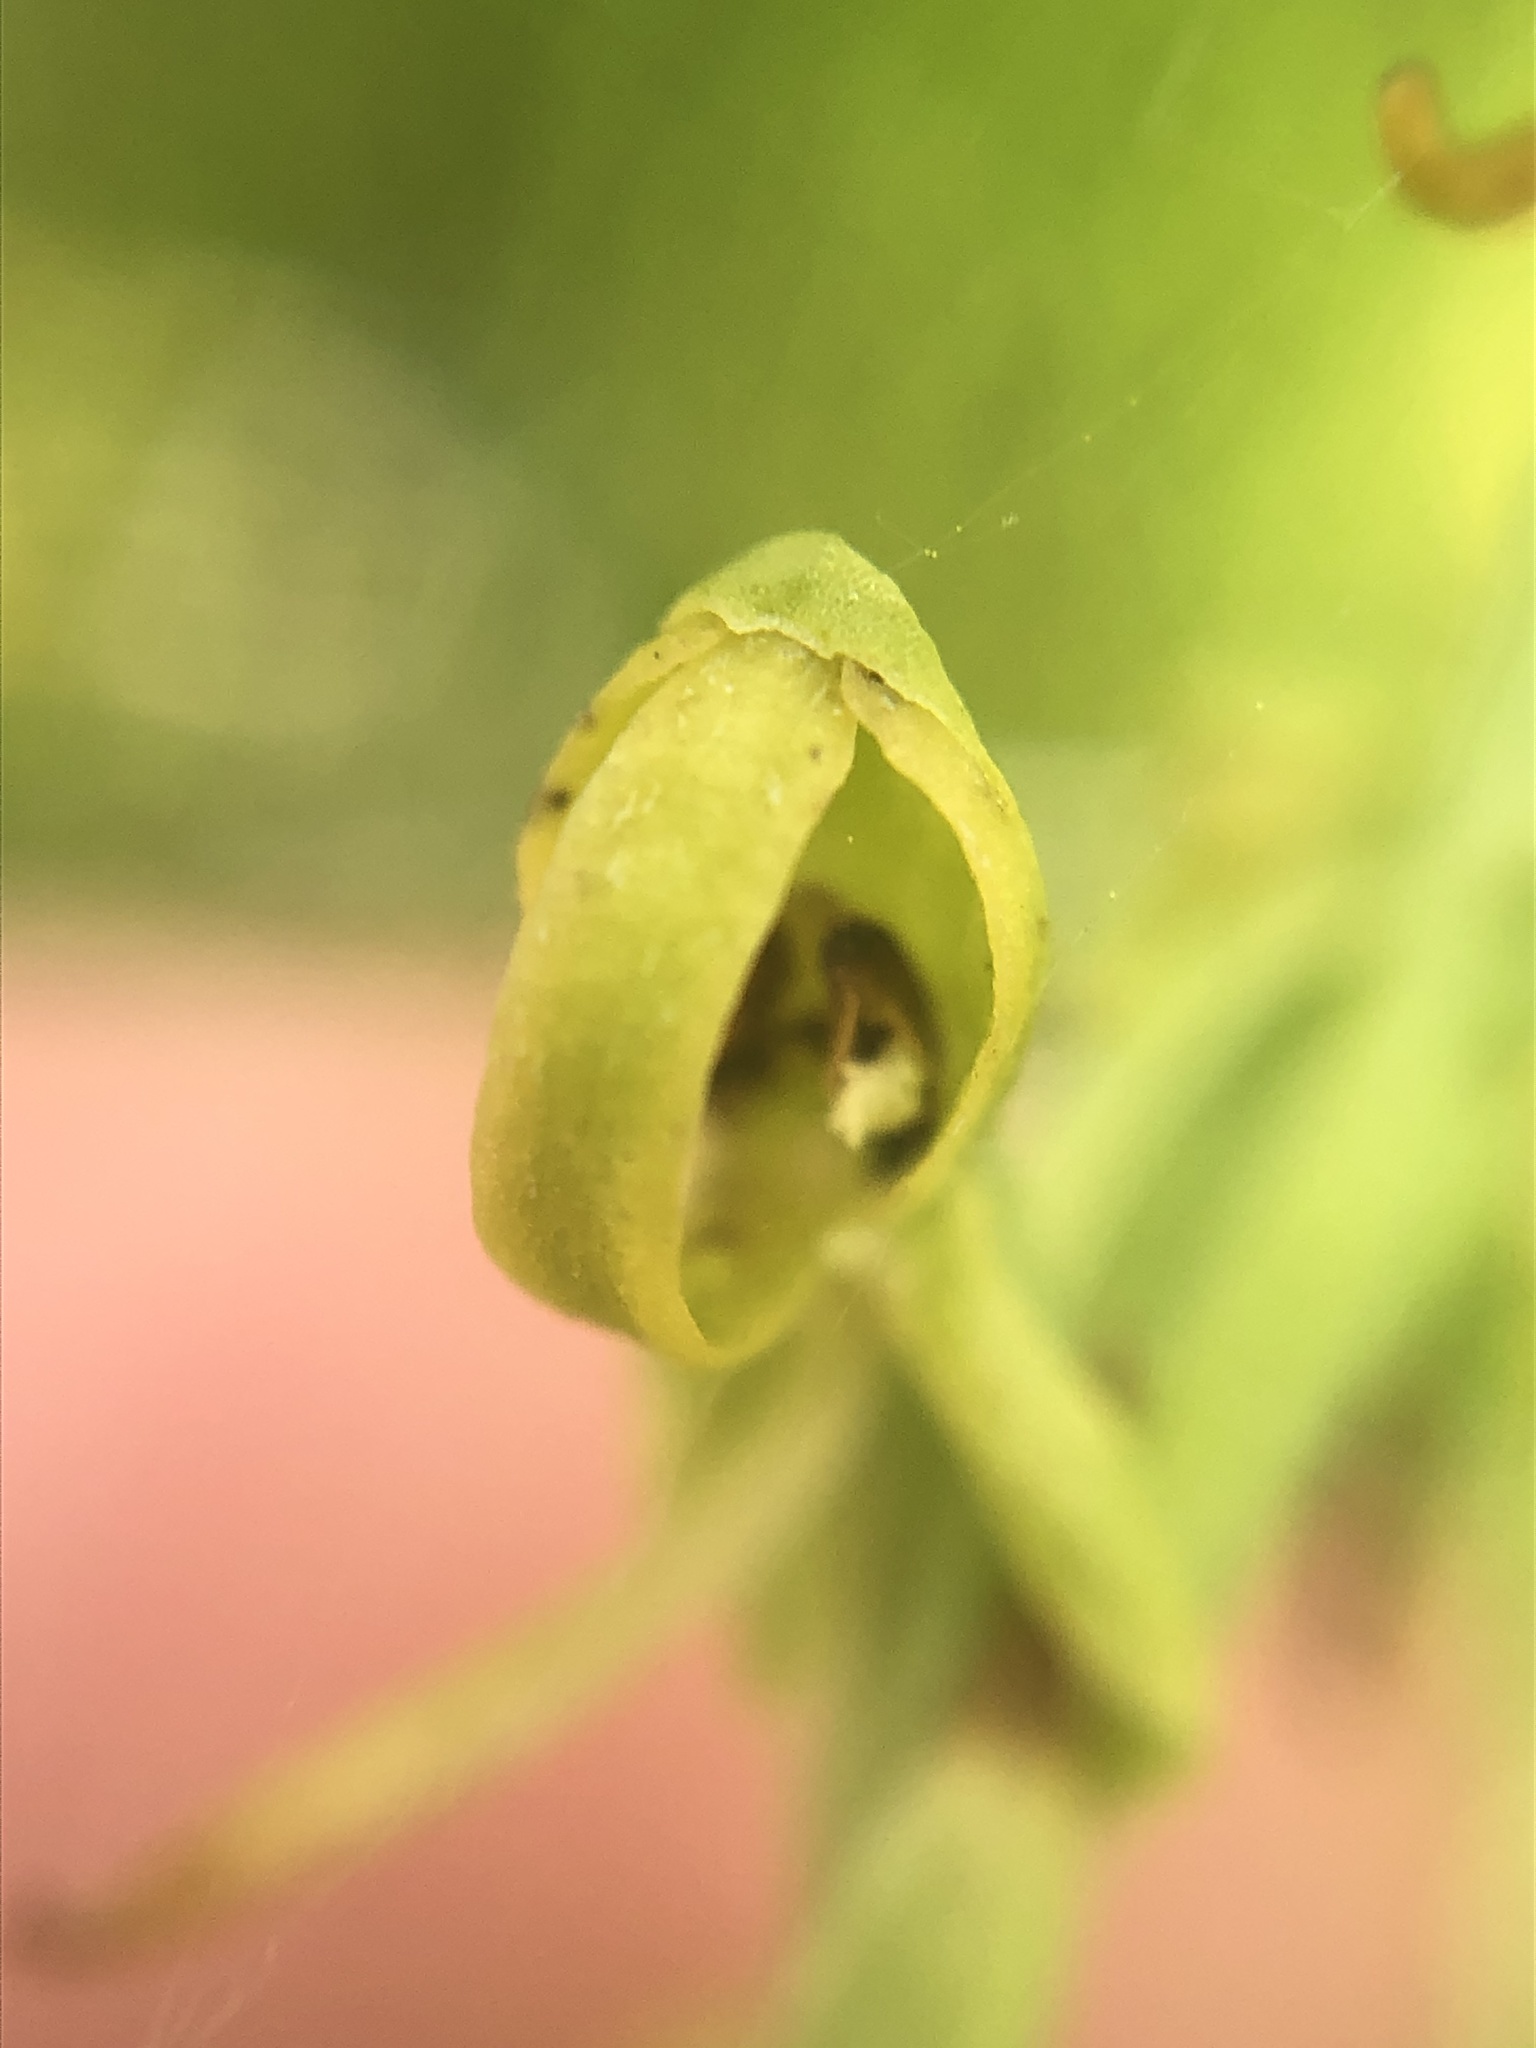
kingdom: Plantae
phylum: Tracheophyta
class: Liliopsida
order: Asparagales
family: Orchidaceae
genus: Platanthera
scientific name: Platanthera sparsiflora
